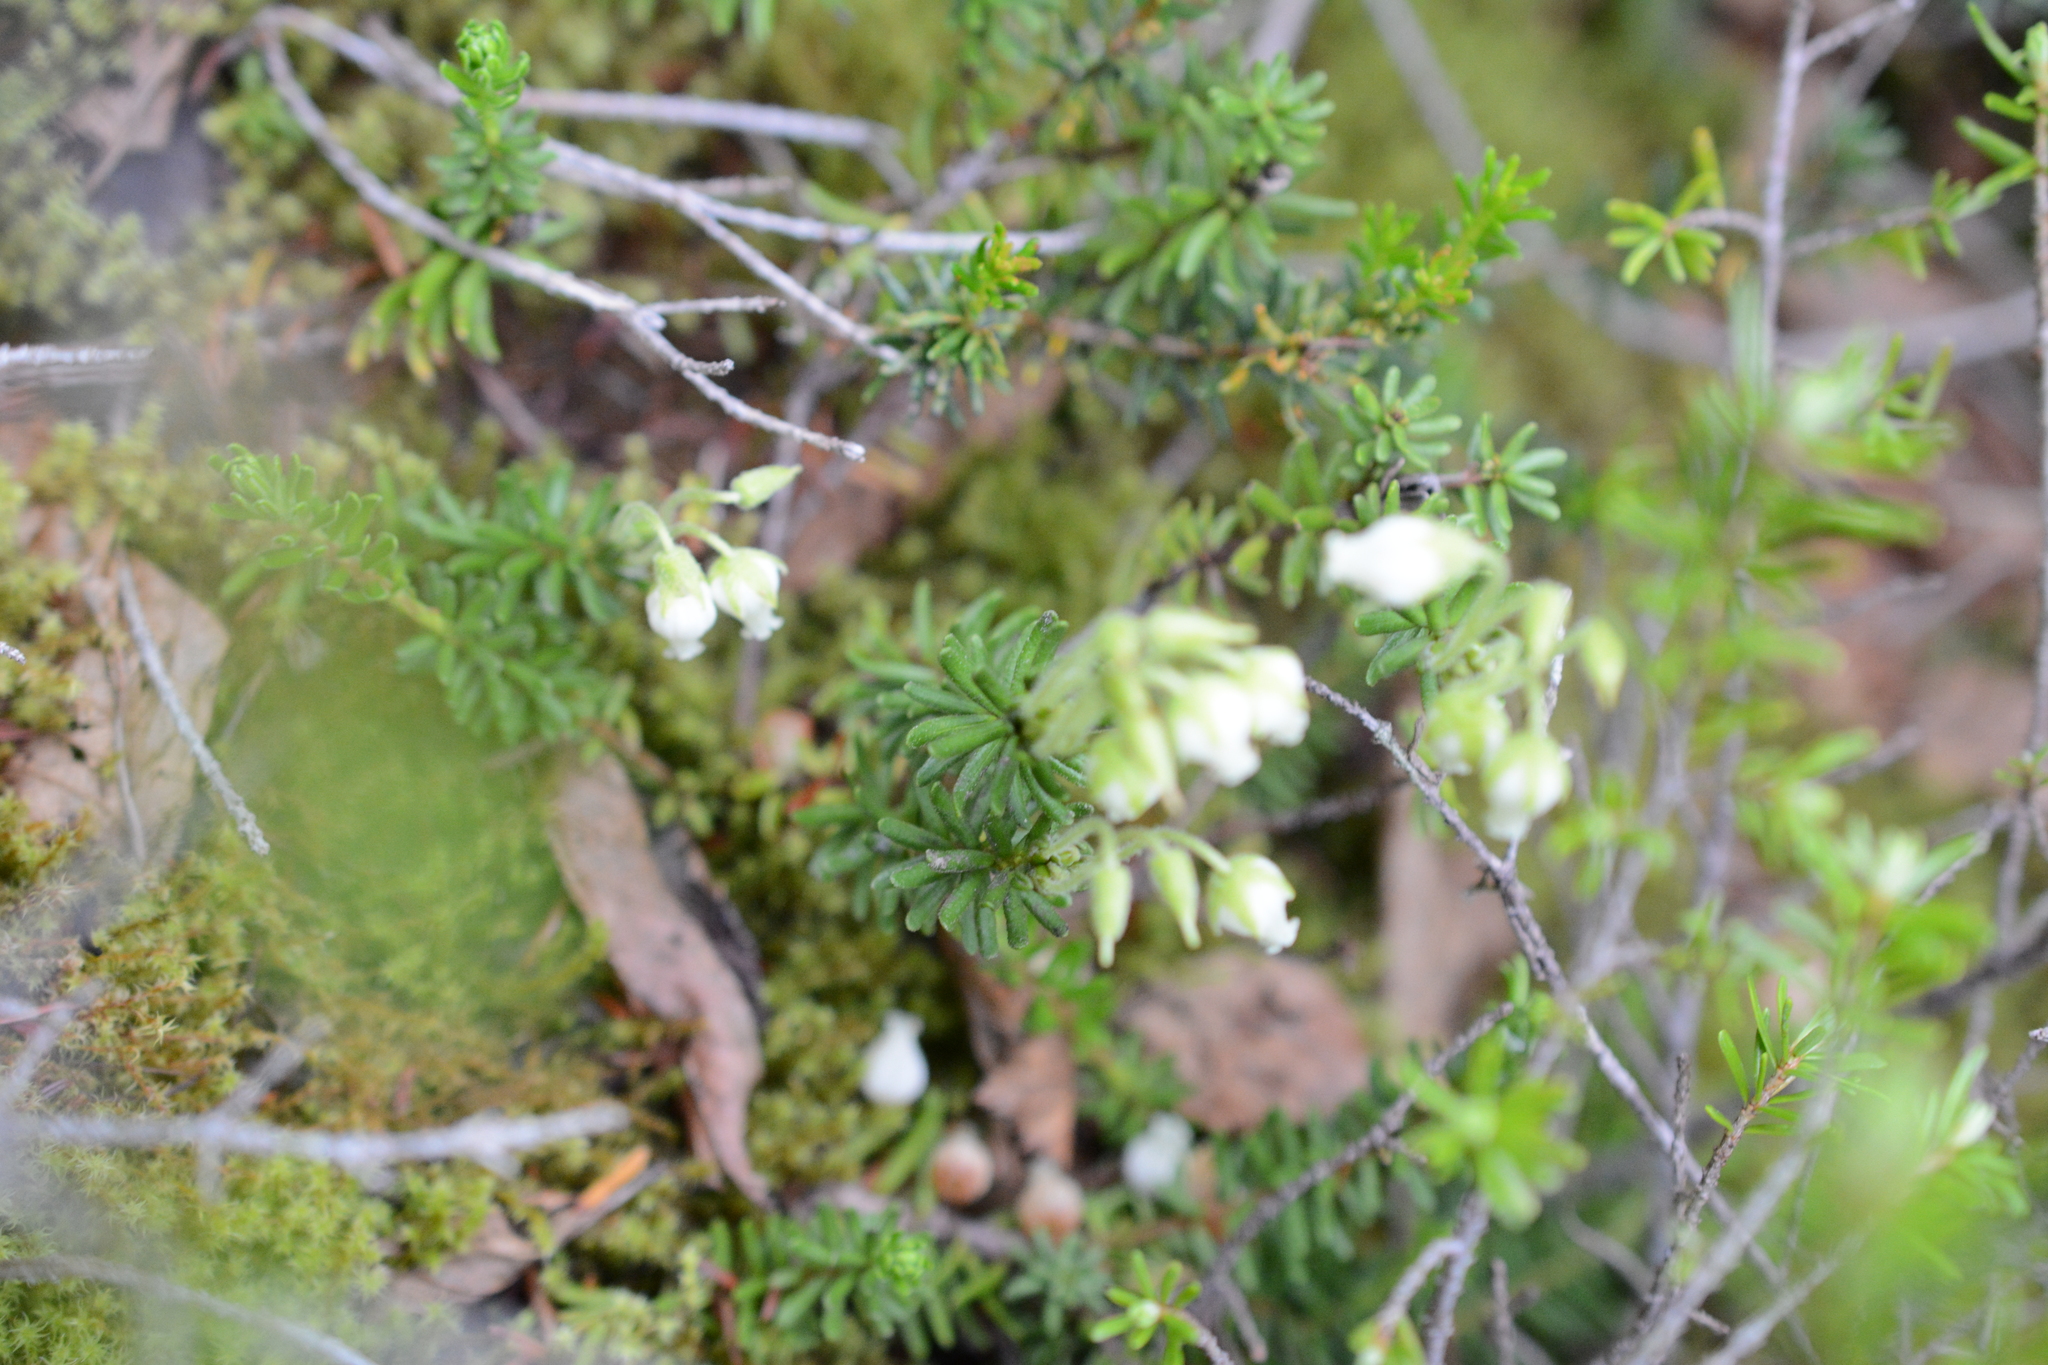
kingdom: Plantae
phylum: Tracheophyta
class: Magnoliopsida
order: Ericales
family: Ericaceae
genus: Phyllodoce
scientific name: Phyllodoce glanduliflora
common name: Cream mountain heather
